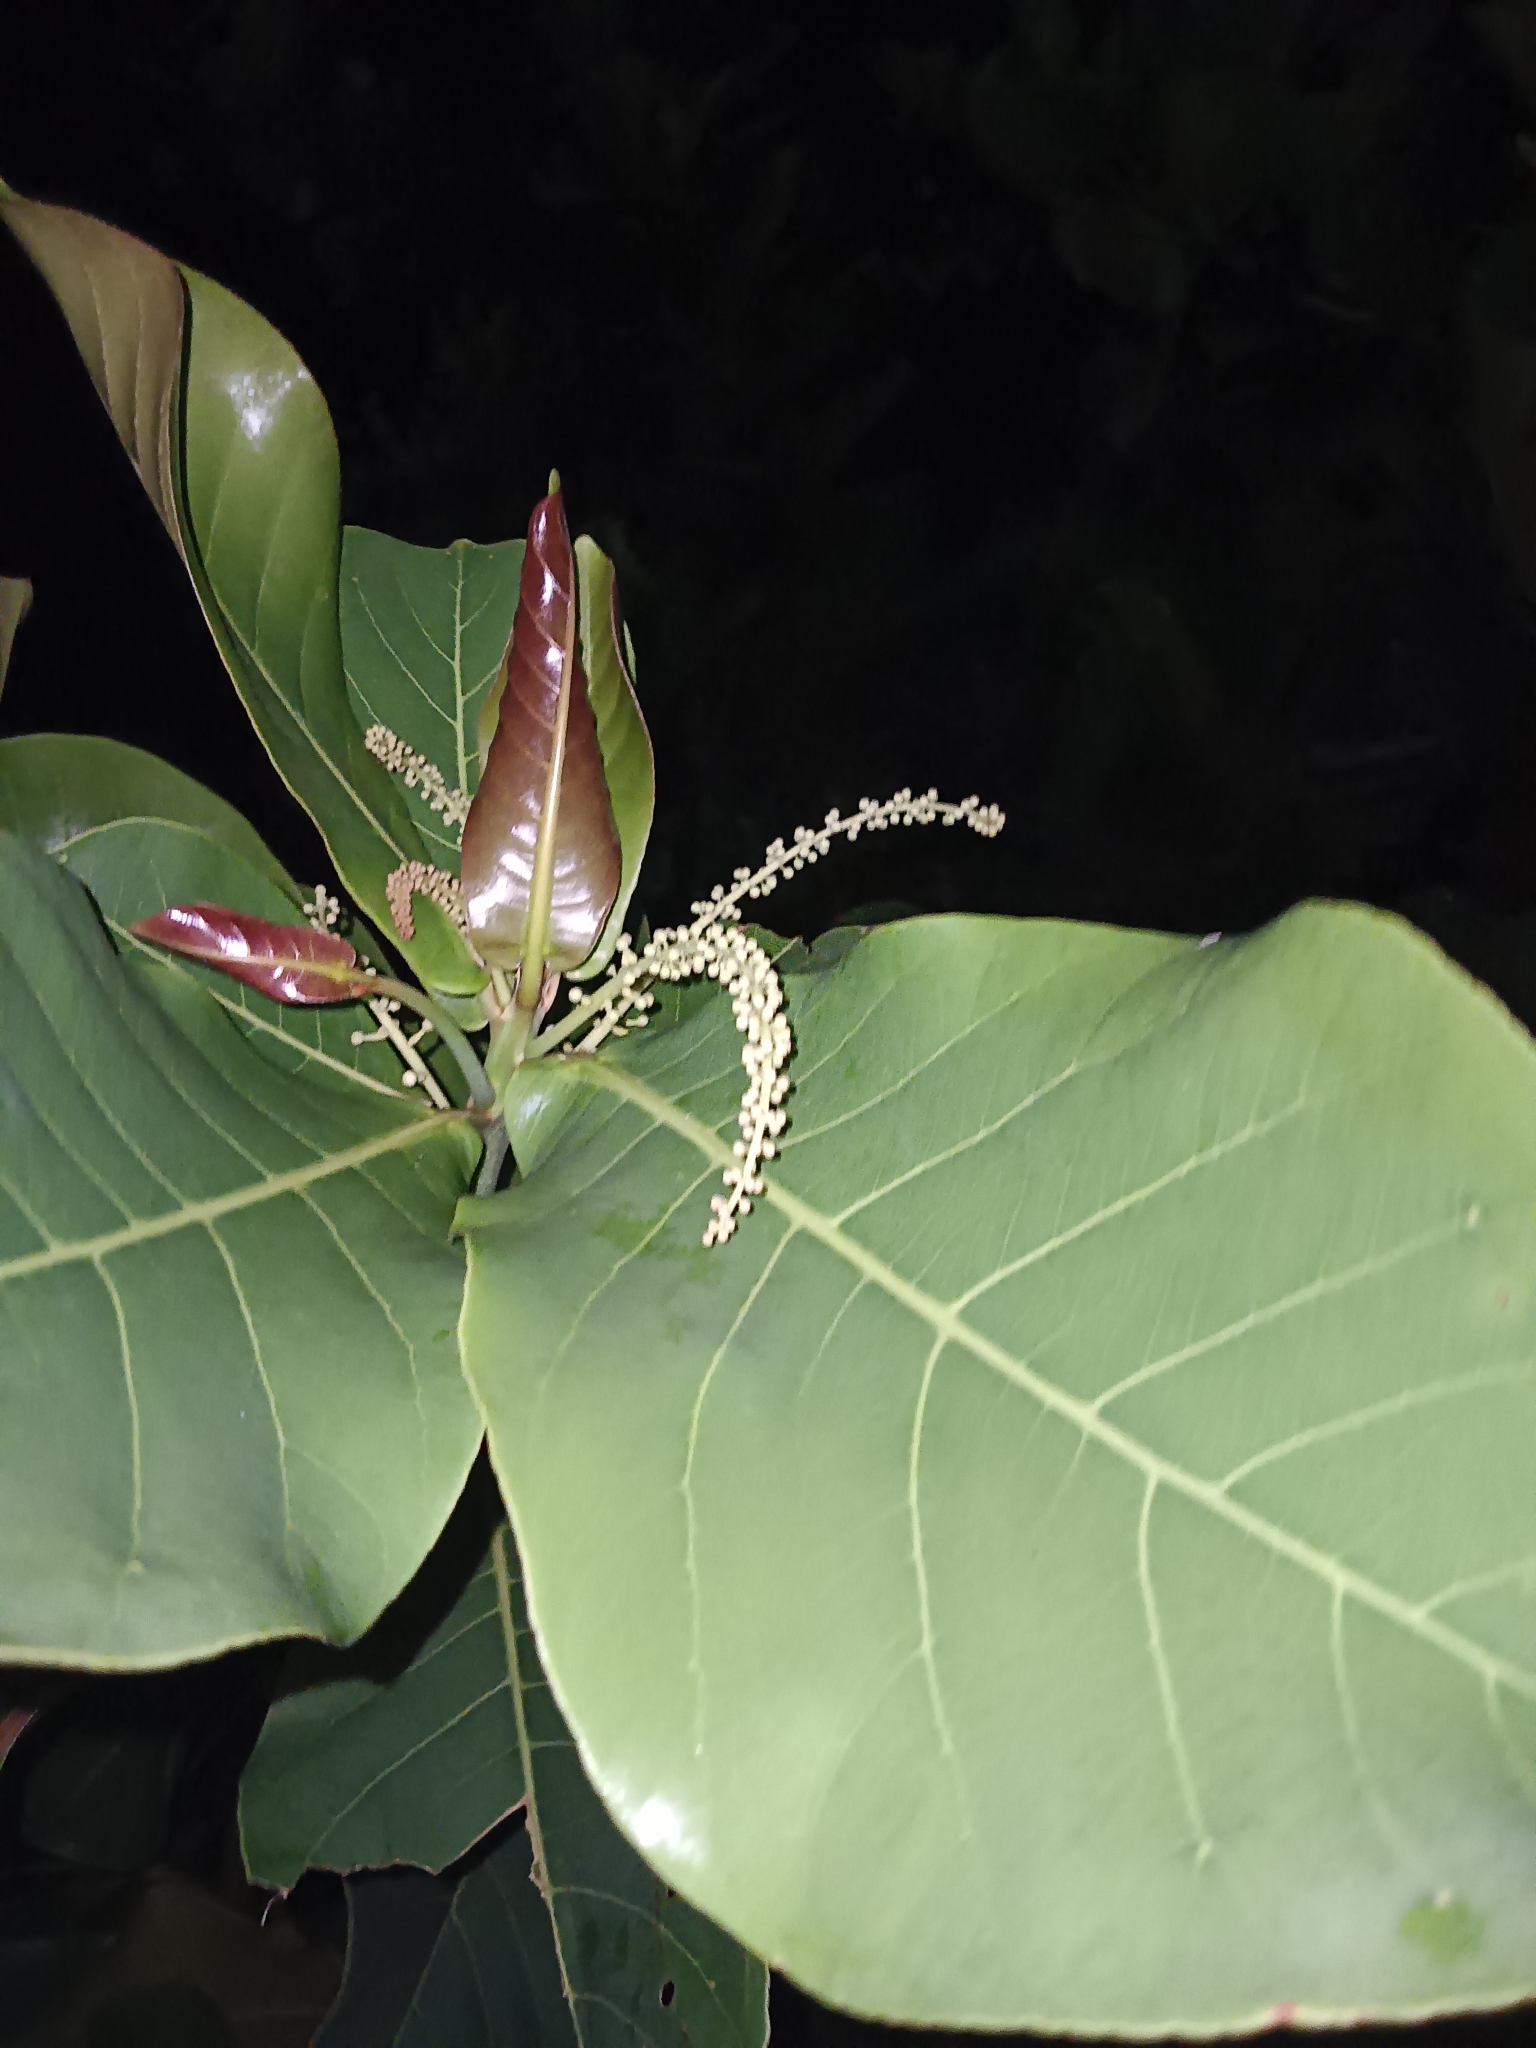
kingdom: Plantae
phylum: Tracheophyta
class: Magnoliopsida
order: Myrtales
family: Combretaceae
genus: Terminalia
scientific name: Terminalia catappa
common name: Tropical almond
